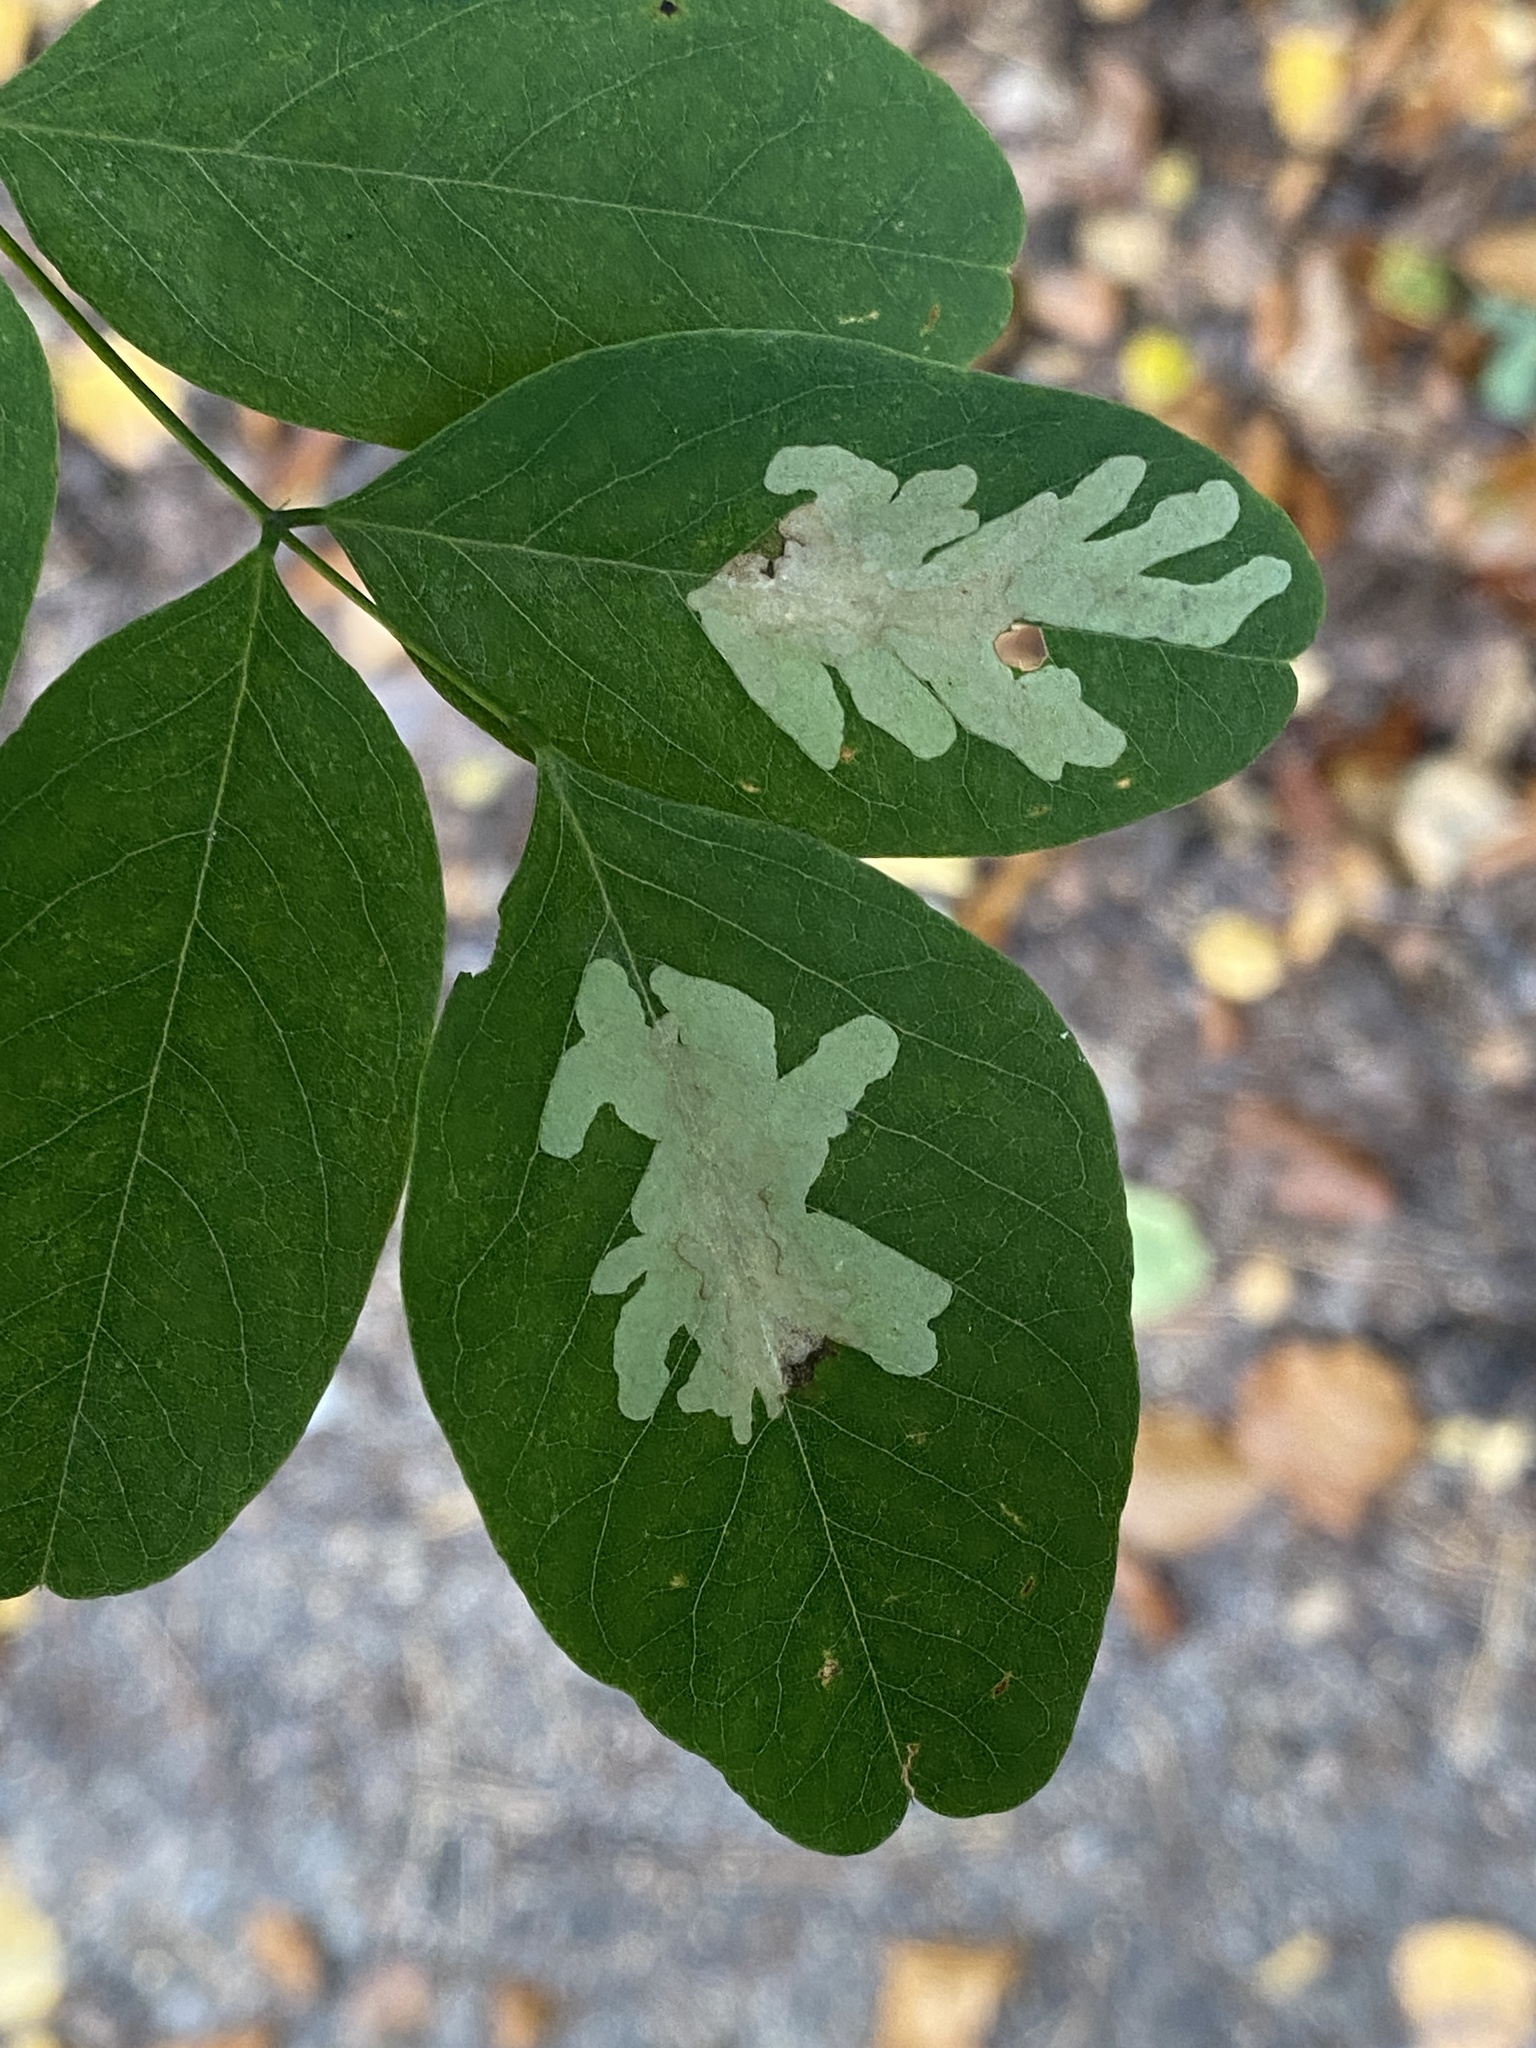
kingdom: Animalia
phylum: Arthropoda
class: Insecta
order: Lepidoptera
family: Gracillariidae
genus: Parectopa
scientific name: Parectopa robiniella
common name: Locust digitate leafminer
